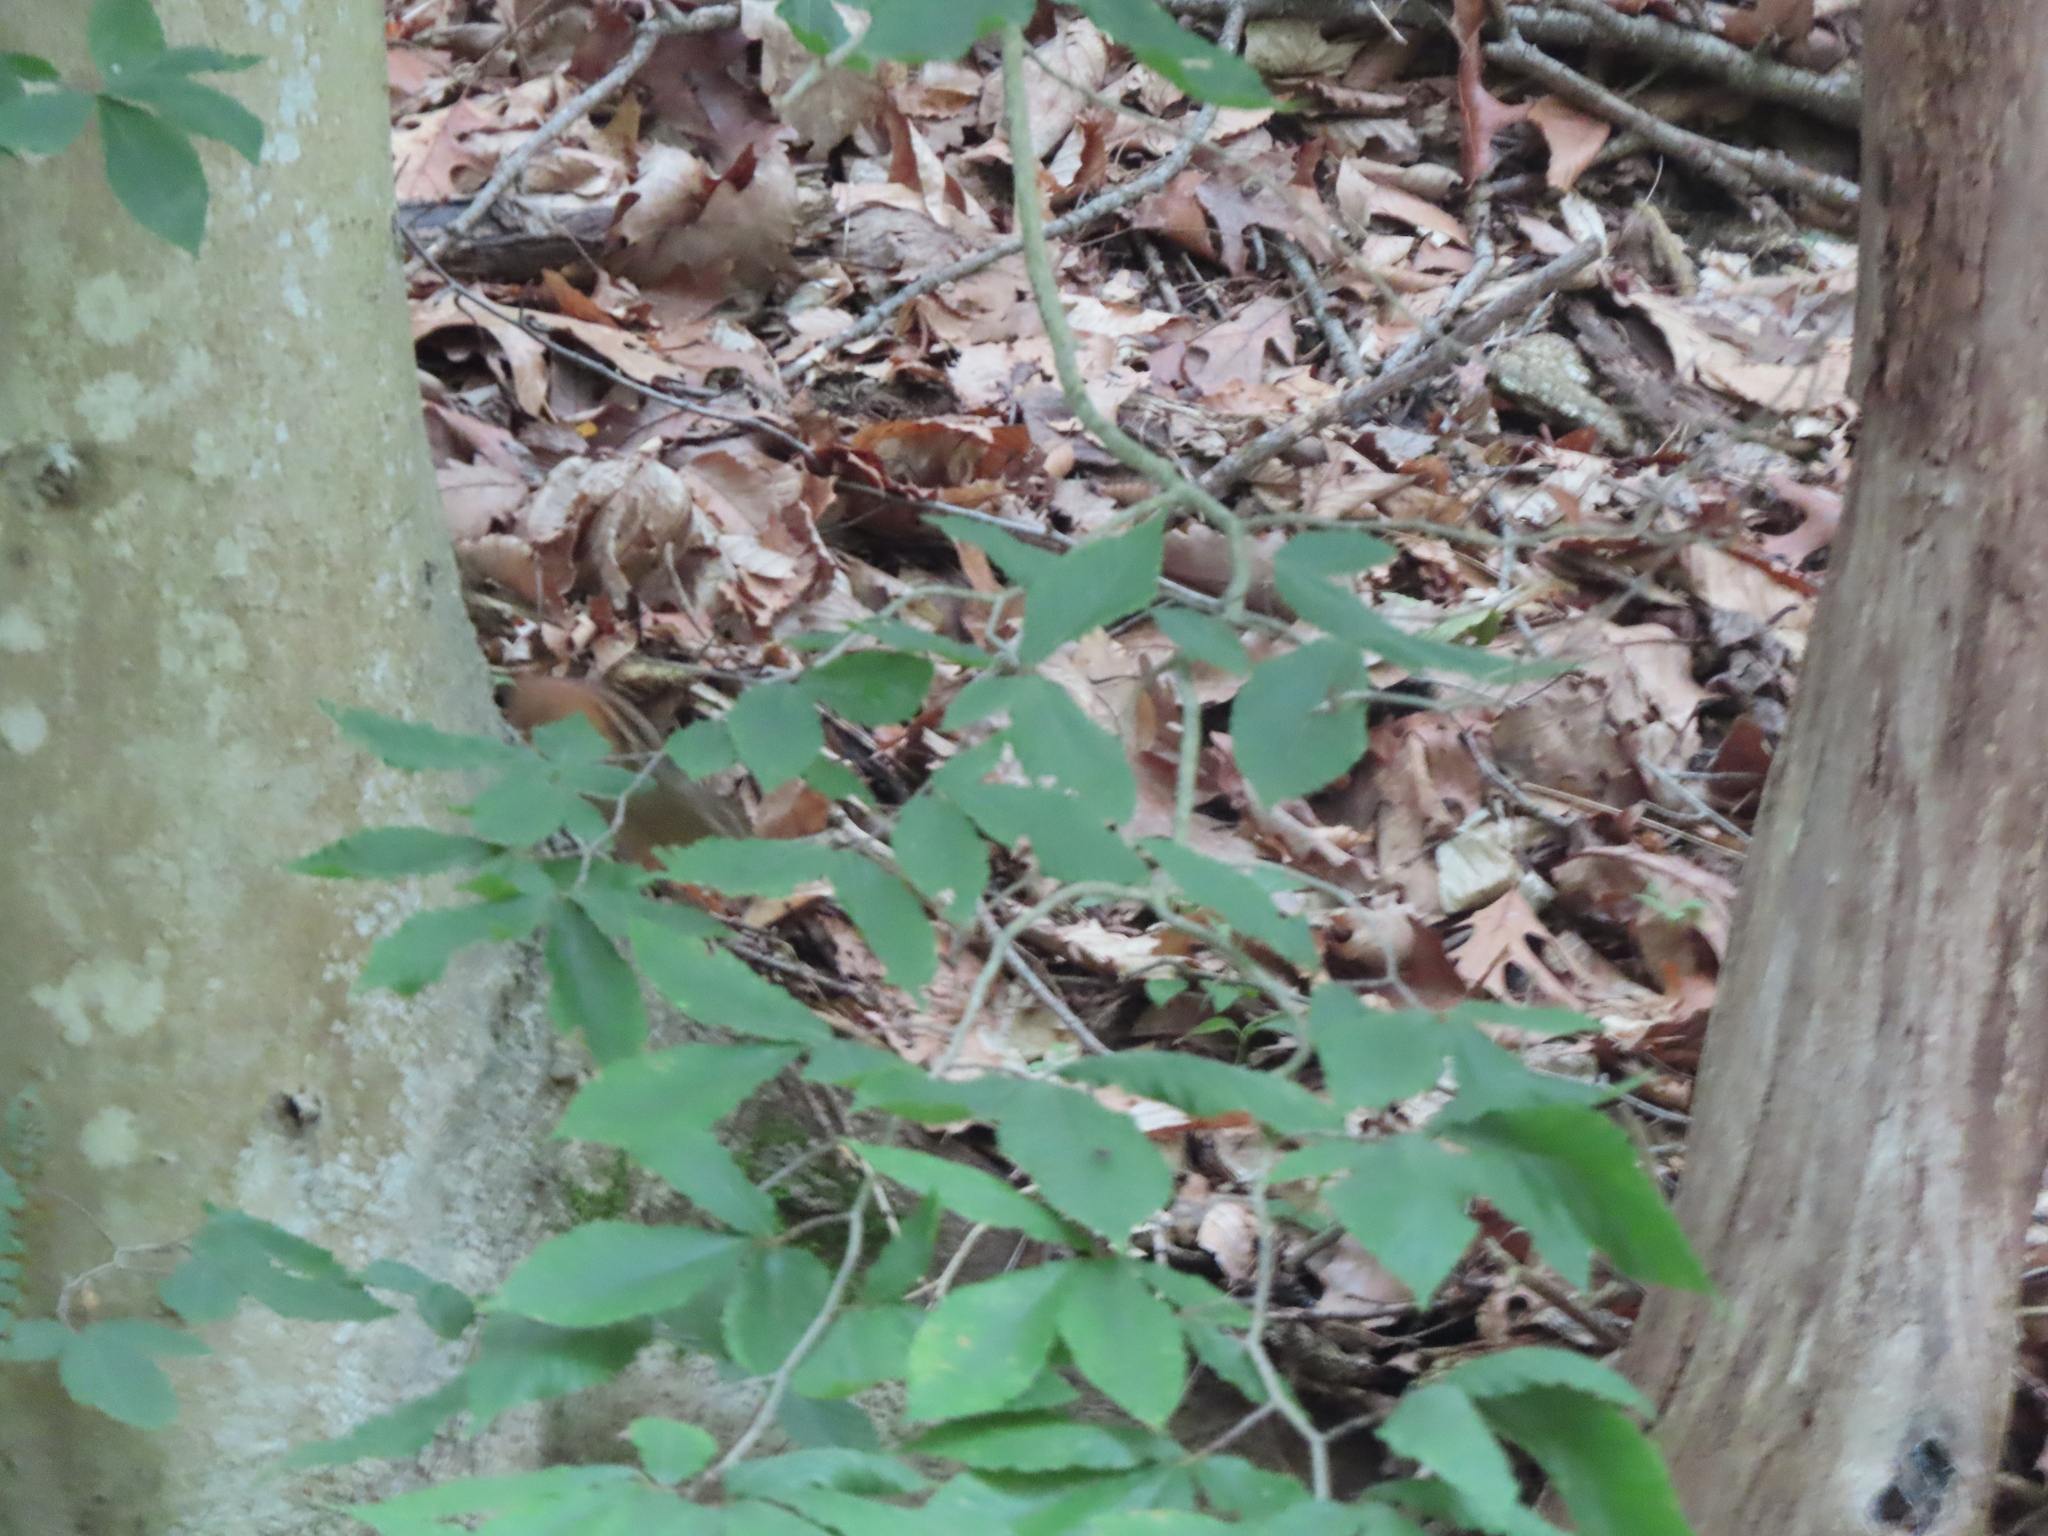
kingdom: Animalia
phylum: Chordata
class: Mammalia
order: Rodentia
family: Sciuridae
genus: Tamias
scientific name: Tamias striatus
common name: Eastern chipmunk
